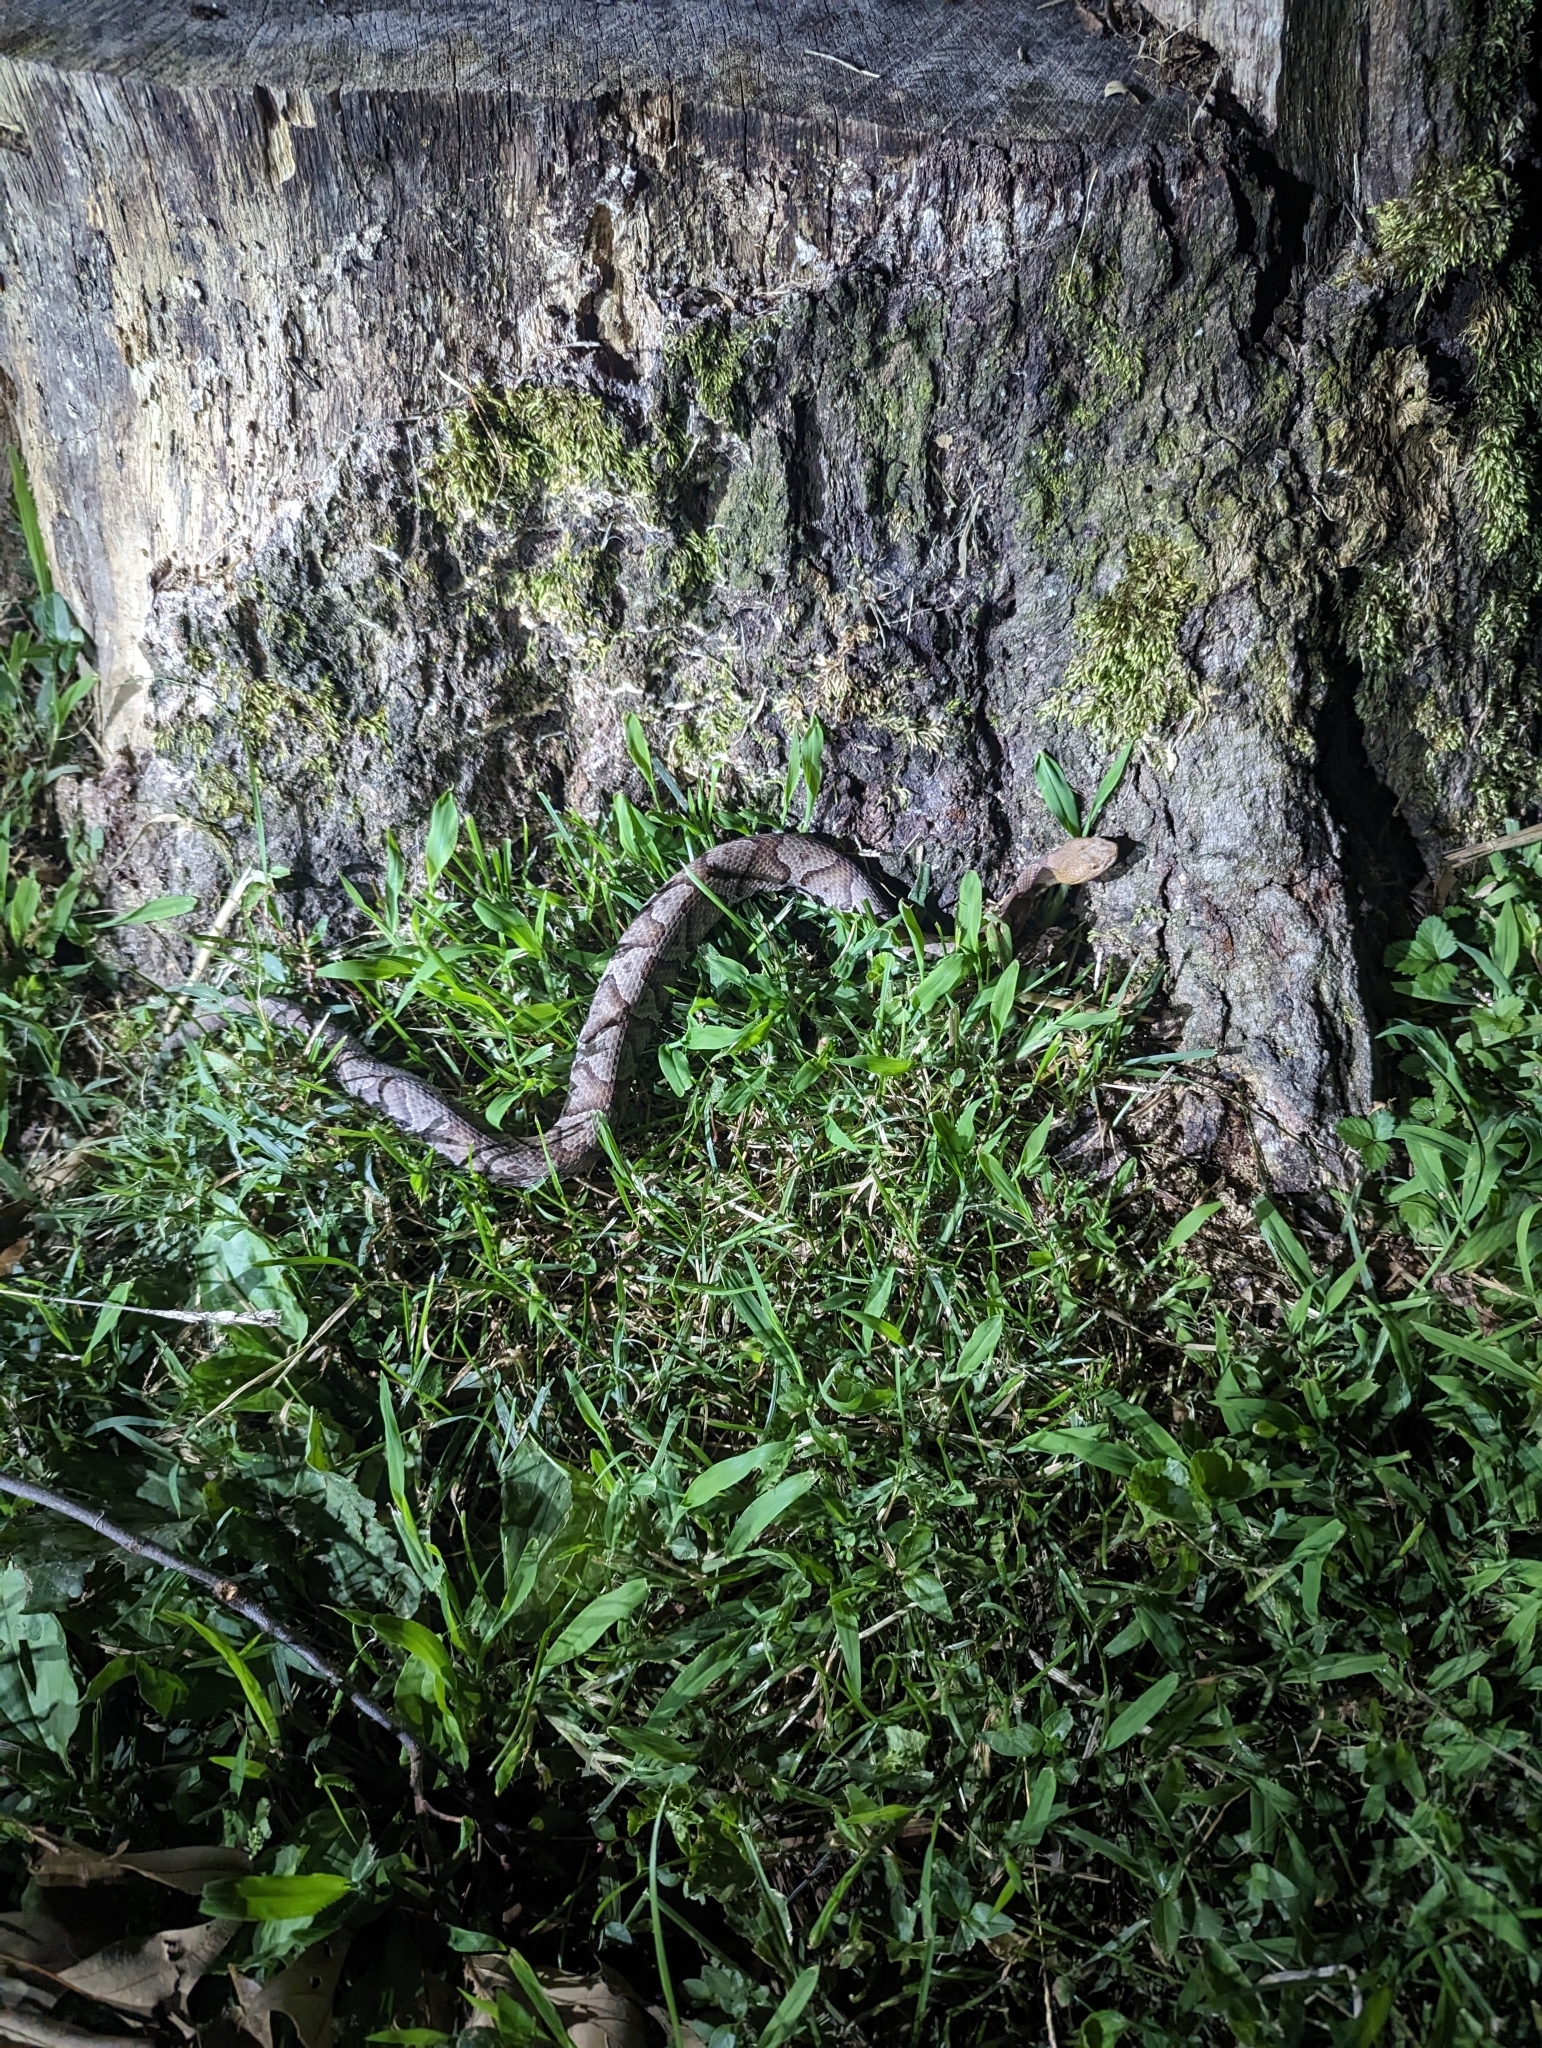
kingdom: Animalia
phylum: Chordata
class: Squamata
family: Viperidae
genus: Agkistrodon
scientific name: Agkistrodon contortrix
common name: Northern copperhead
